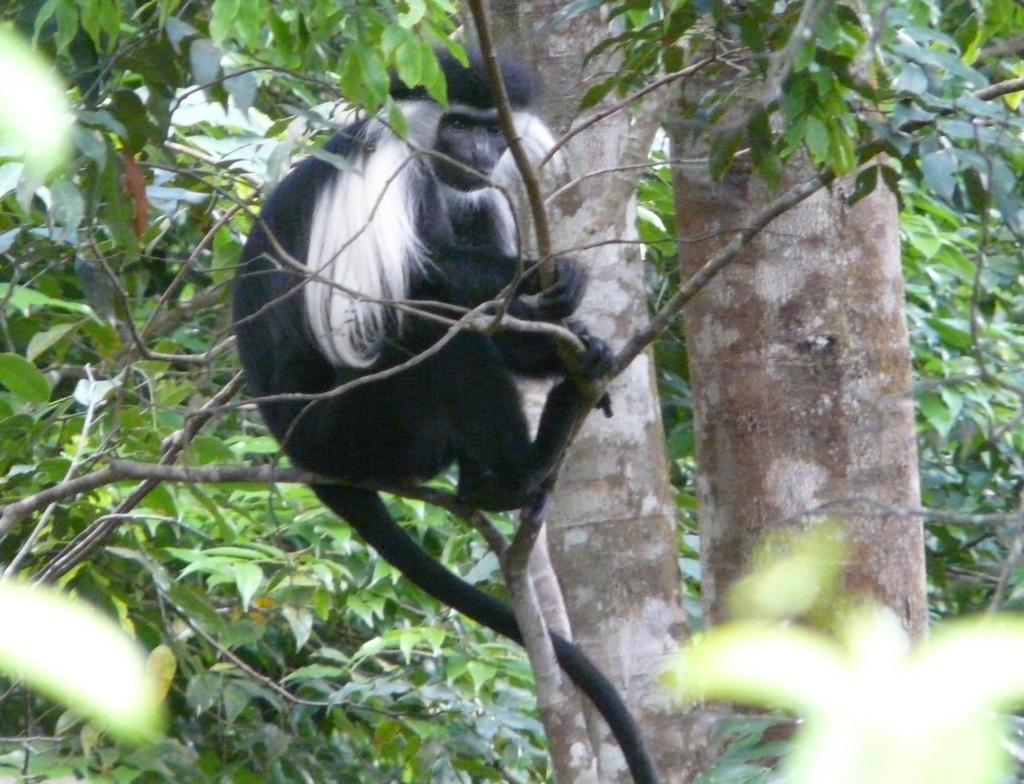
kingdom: Animalia
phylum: Chordata
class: Mammalia
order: Primates
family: Cercopithecidae
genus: Colobus
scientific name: Colobus angolensis
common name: Angola colobus
